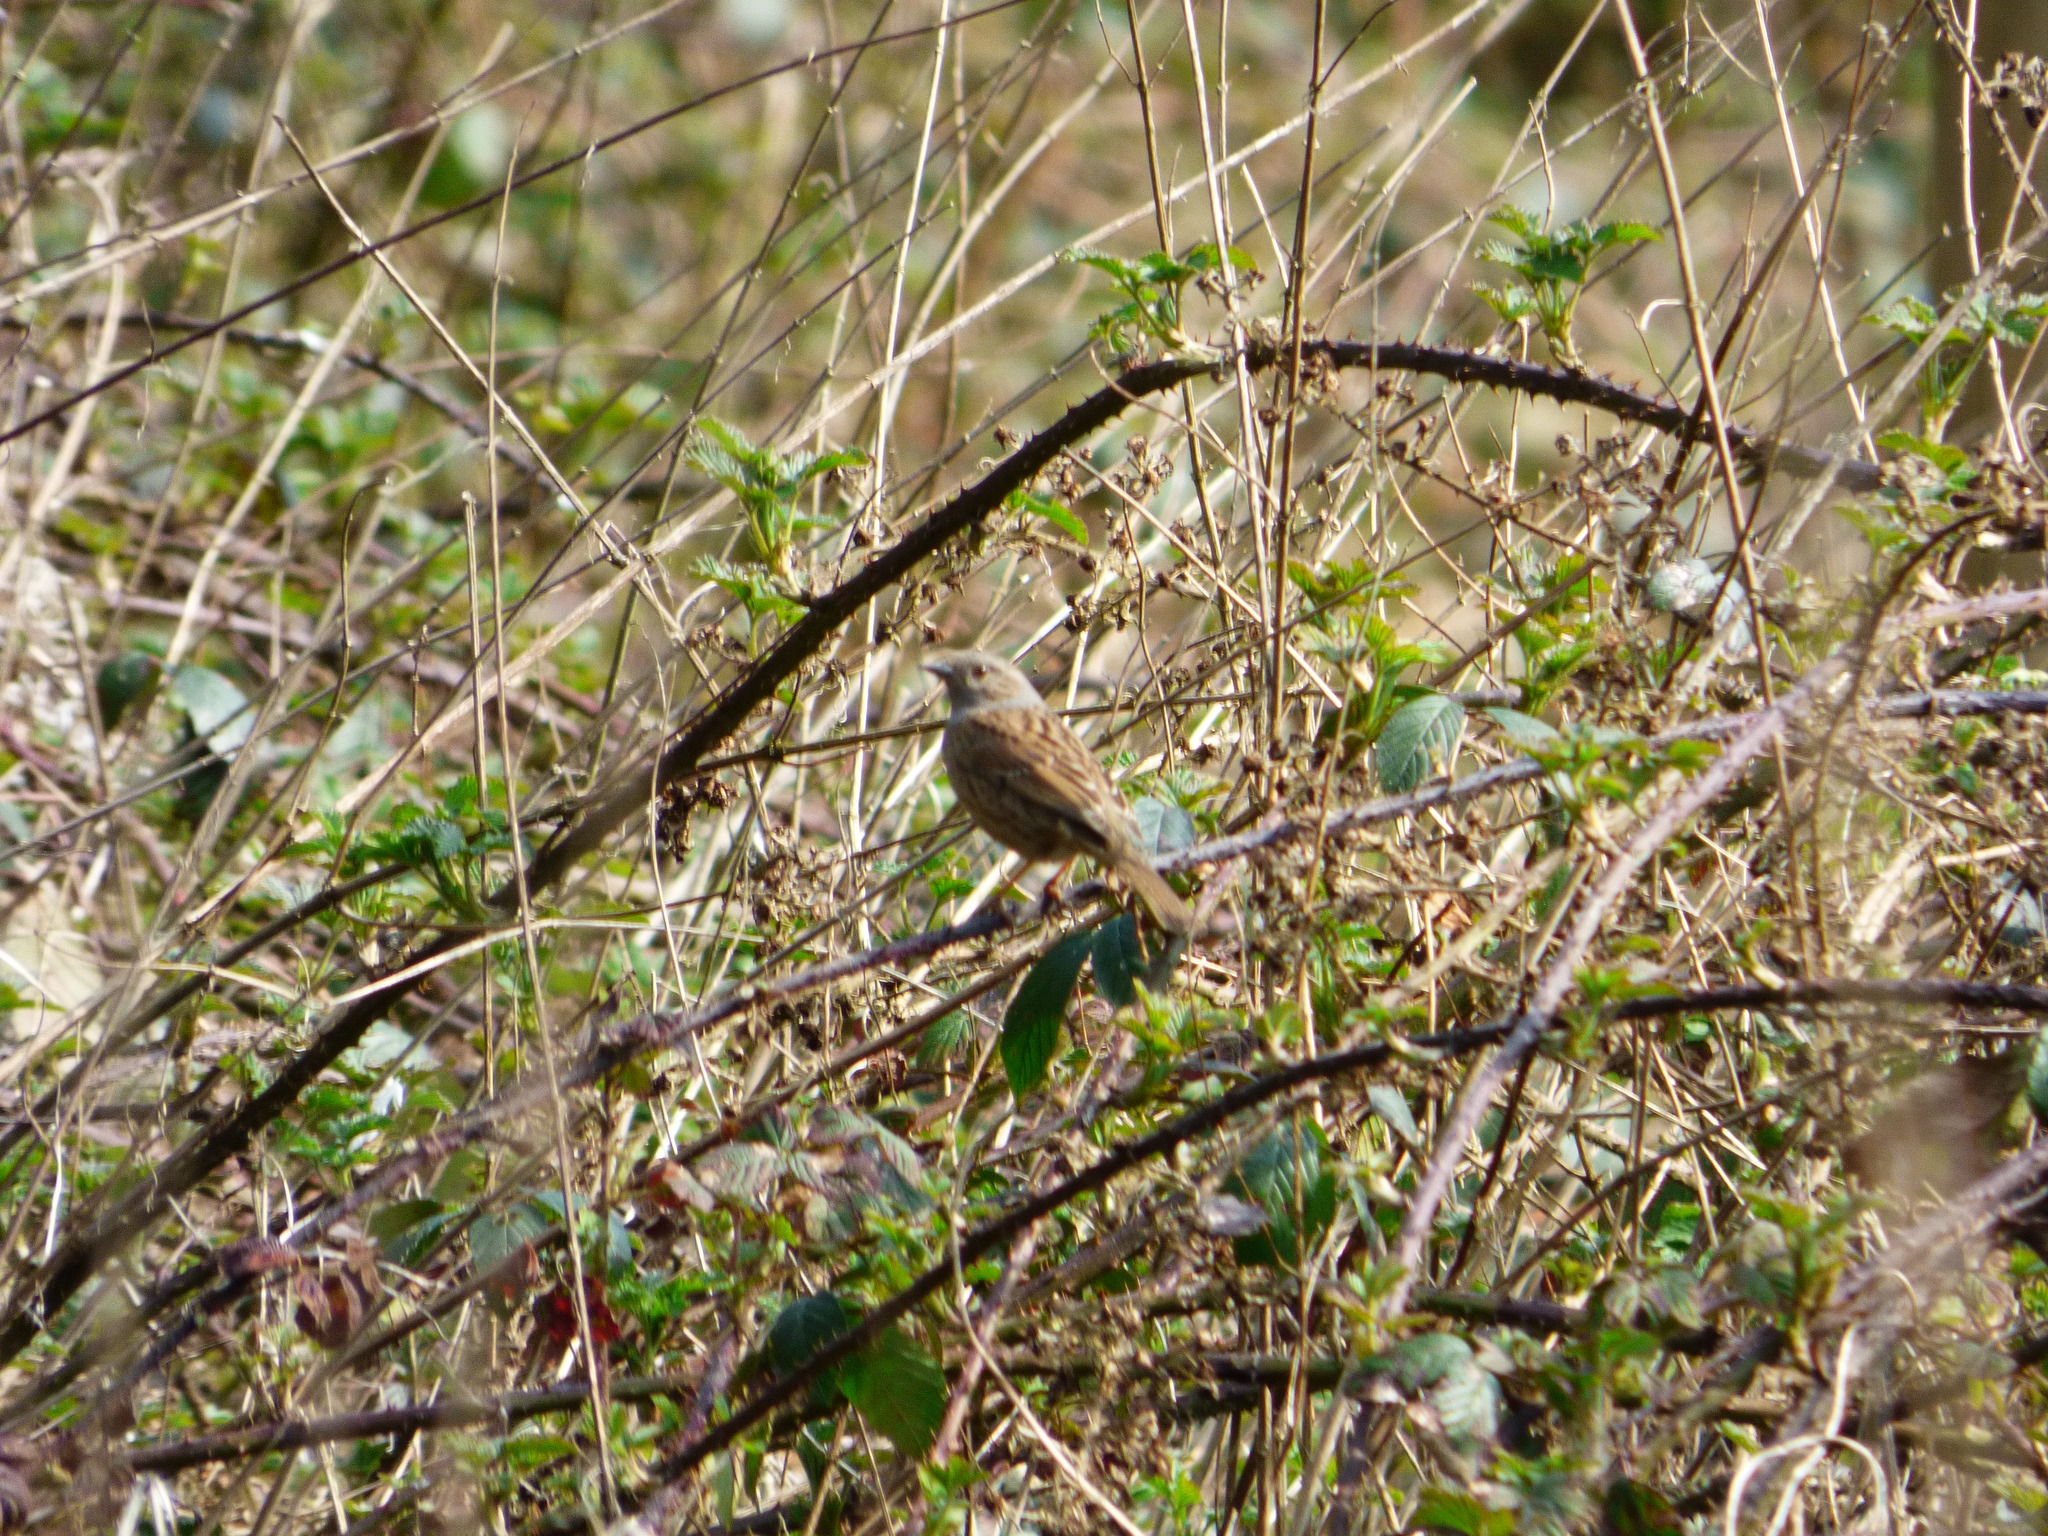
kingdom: Animalia
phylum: Chordata
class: Aves
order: Passeriformes
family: Prunellidae
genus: Prunella
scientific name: Prunella modularis
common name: Dunnock
